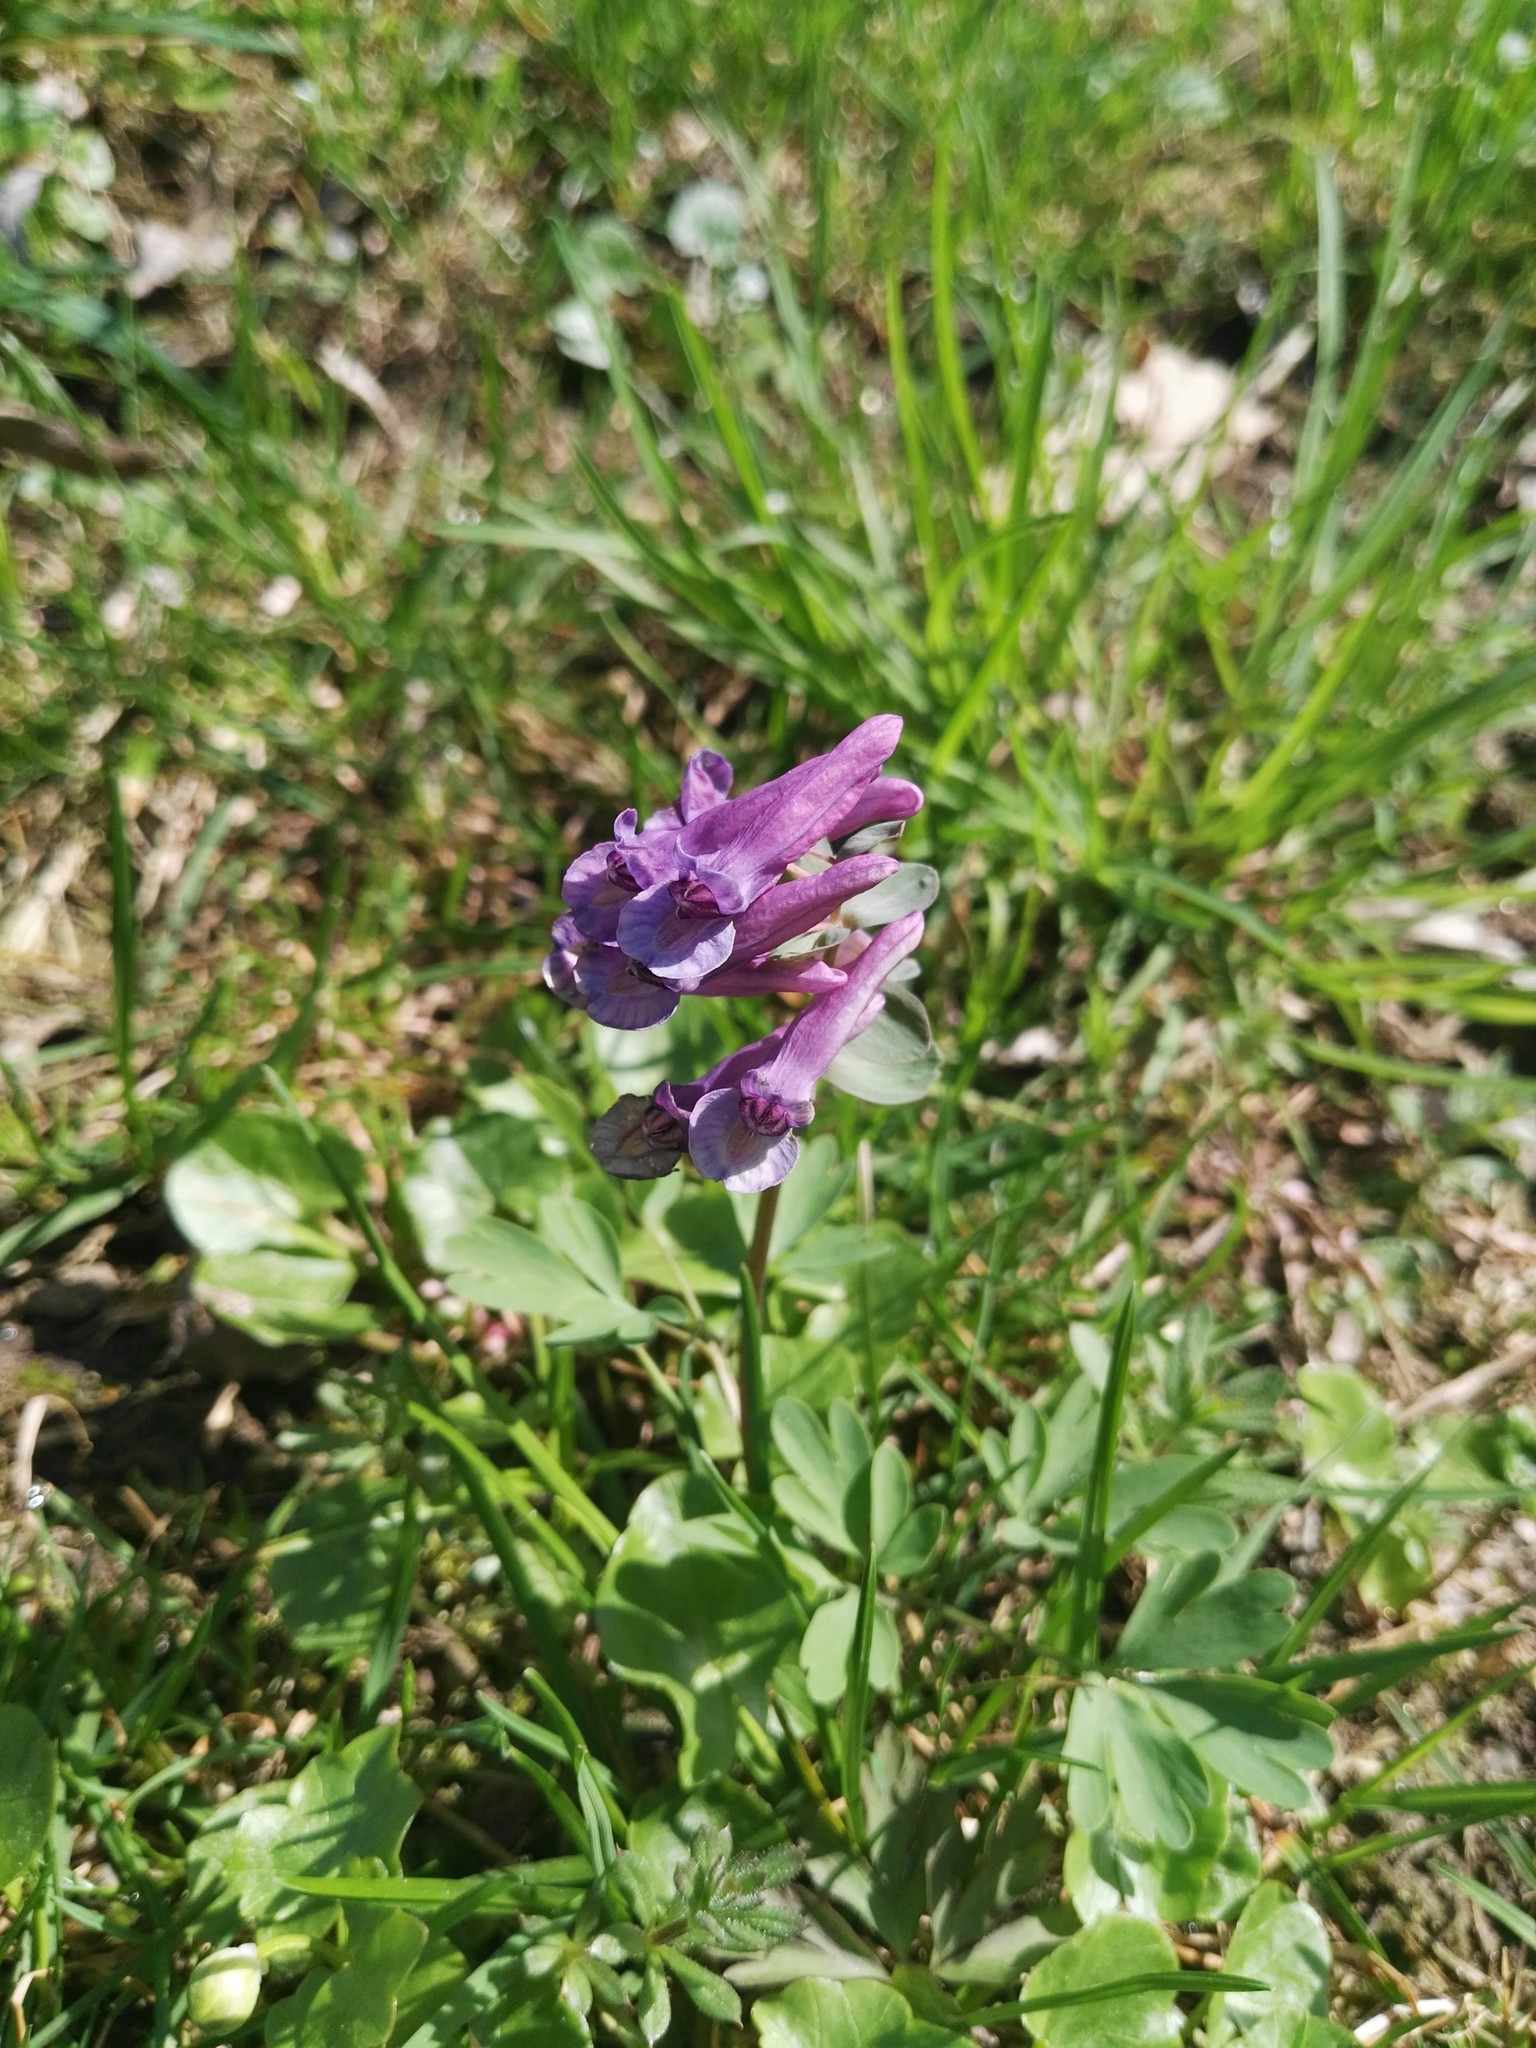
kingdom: Plantae
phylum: Tracheophyta
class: Magnoliopsida
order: Ranunculales
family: Papaveraceae
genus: Corydalis
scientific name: Corydalis cava
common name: Hollowroot
